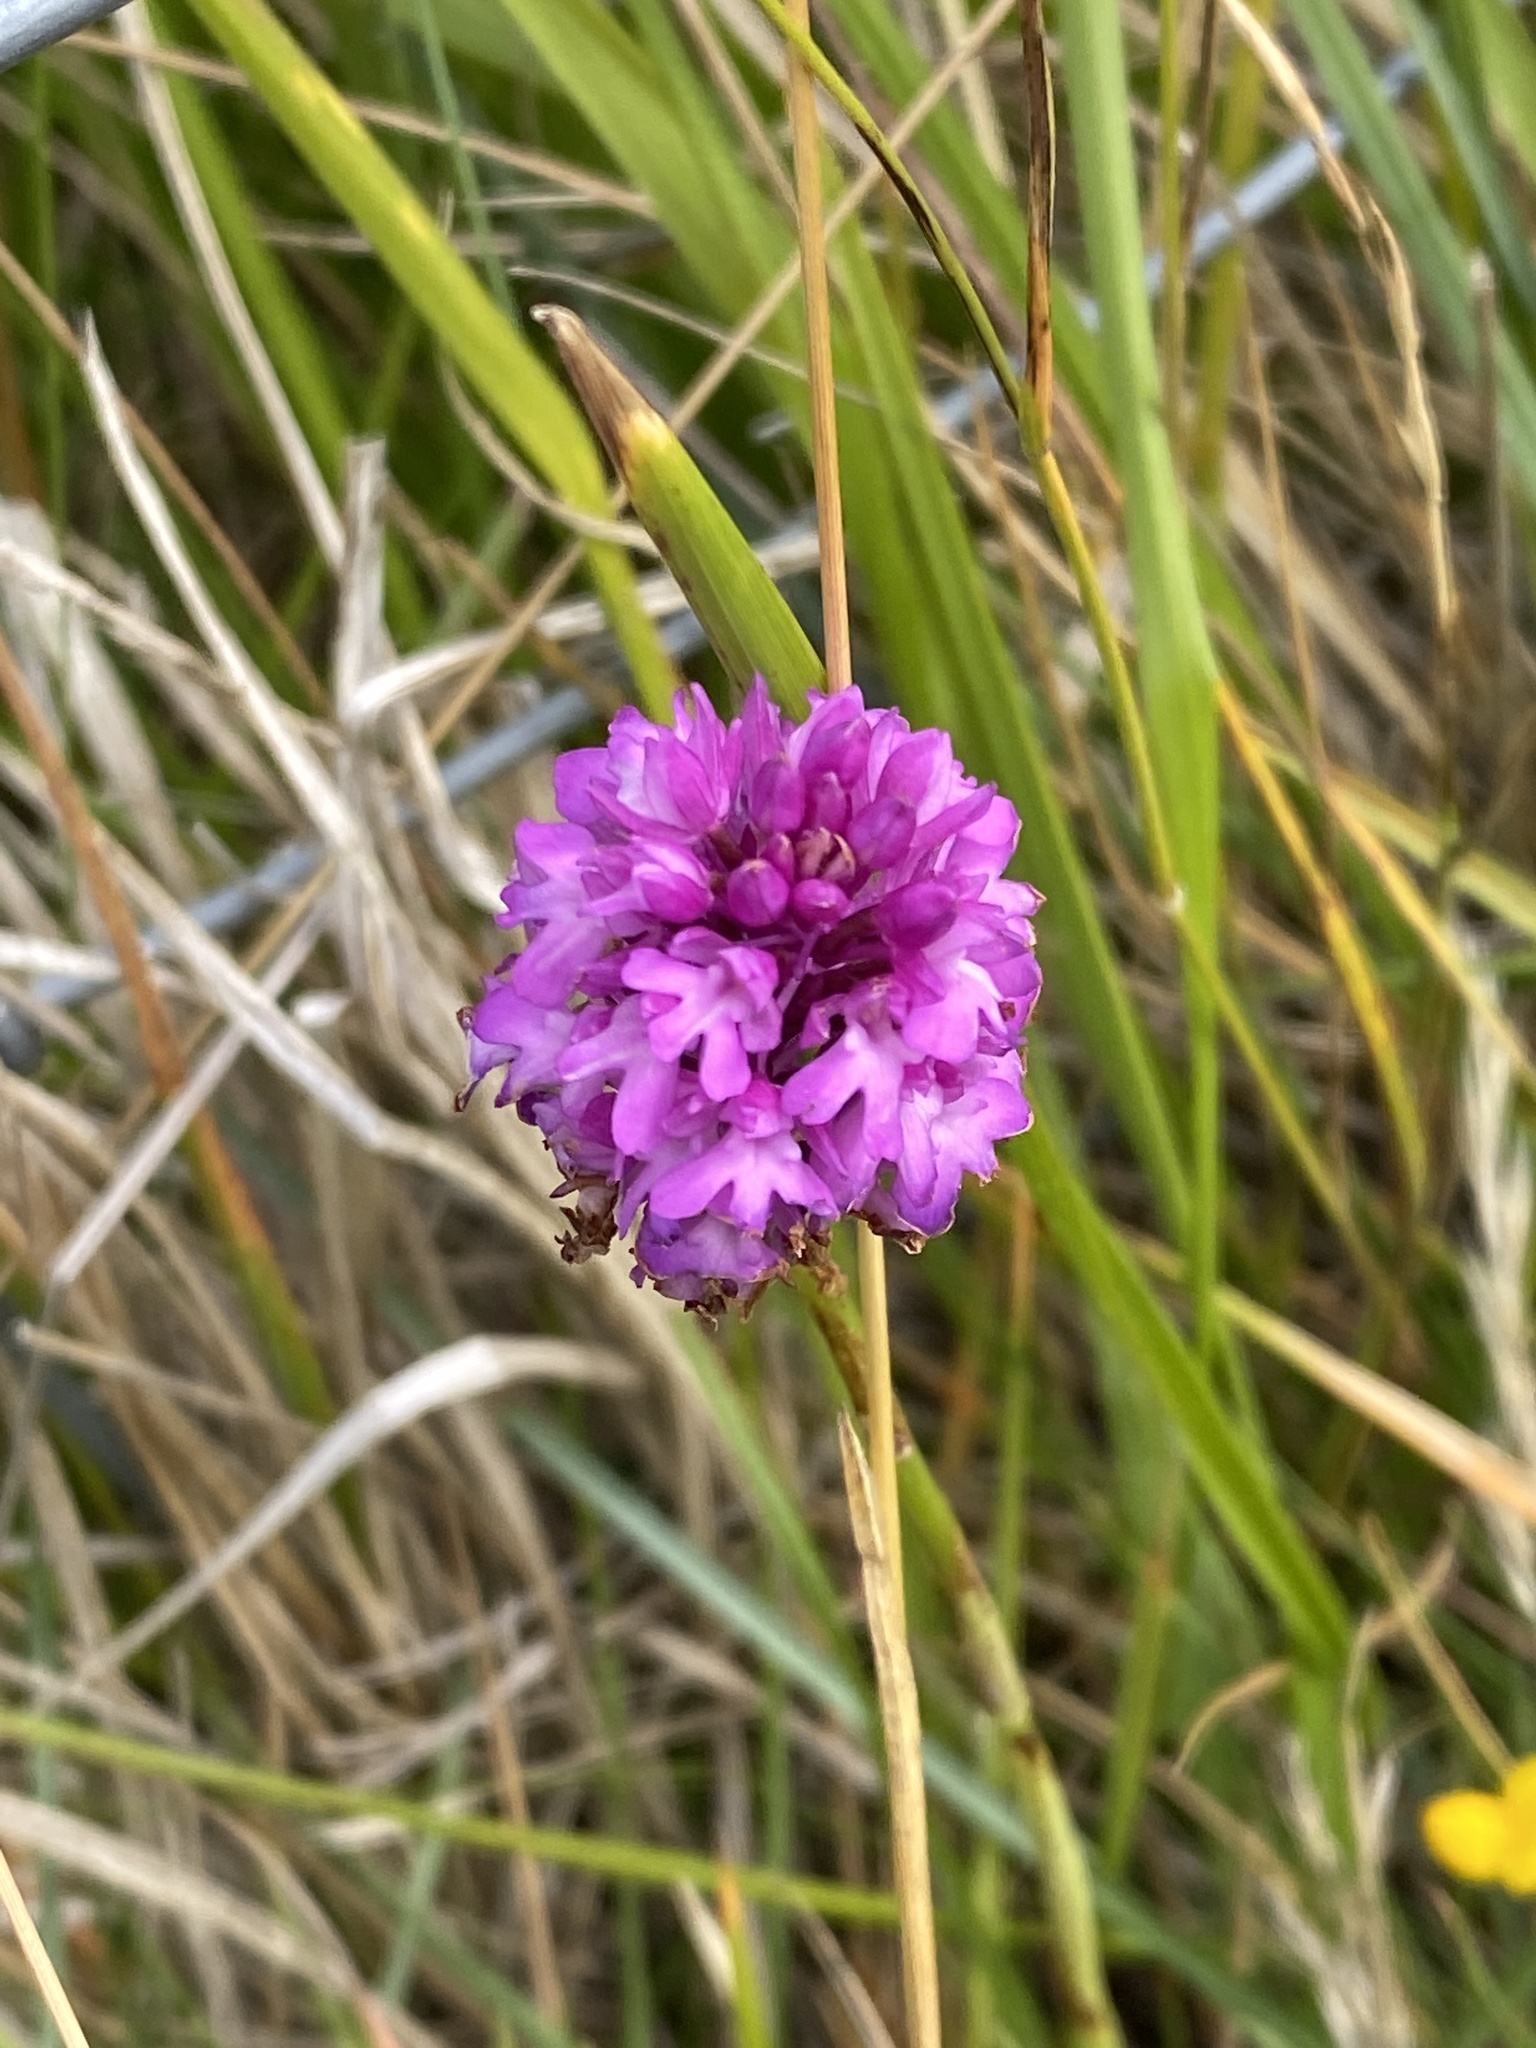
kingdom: Plantae
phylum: Tracheophyta
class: Liliopsida
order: Asparagales
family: Orchidaceae
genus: Anacamptis
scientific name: Anacamptis pyramidalis
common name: Pyramidal orchid
